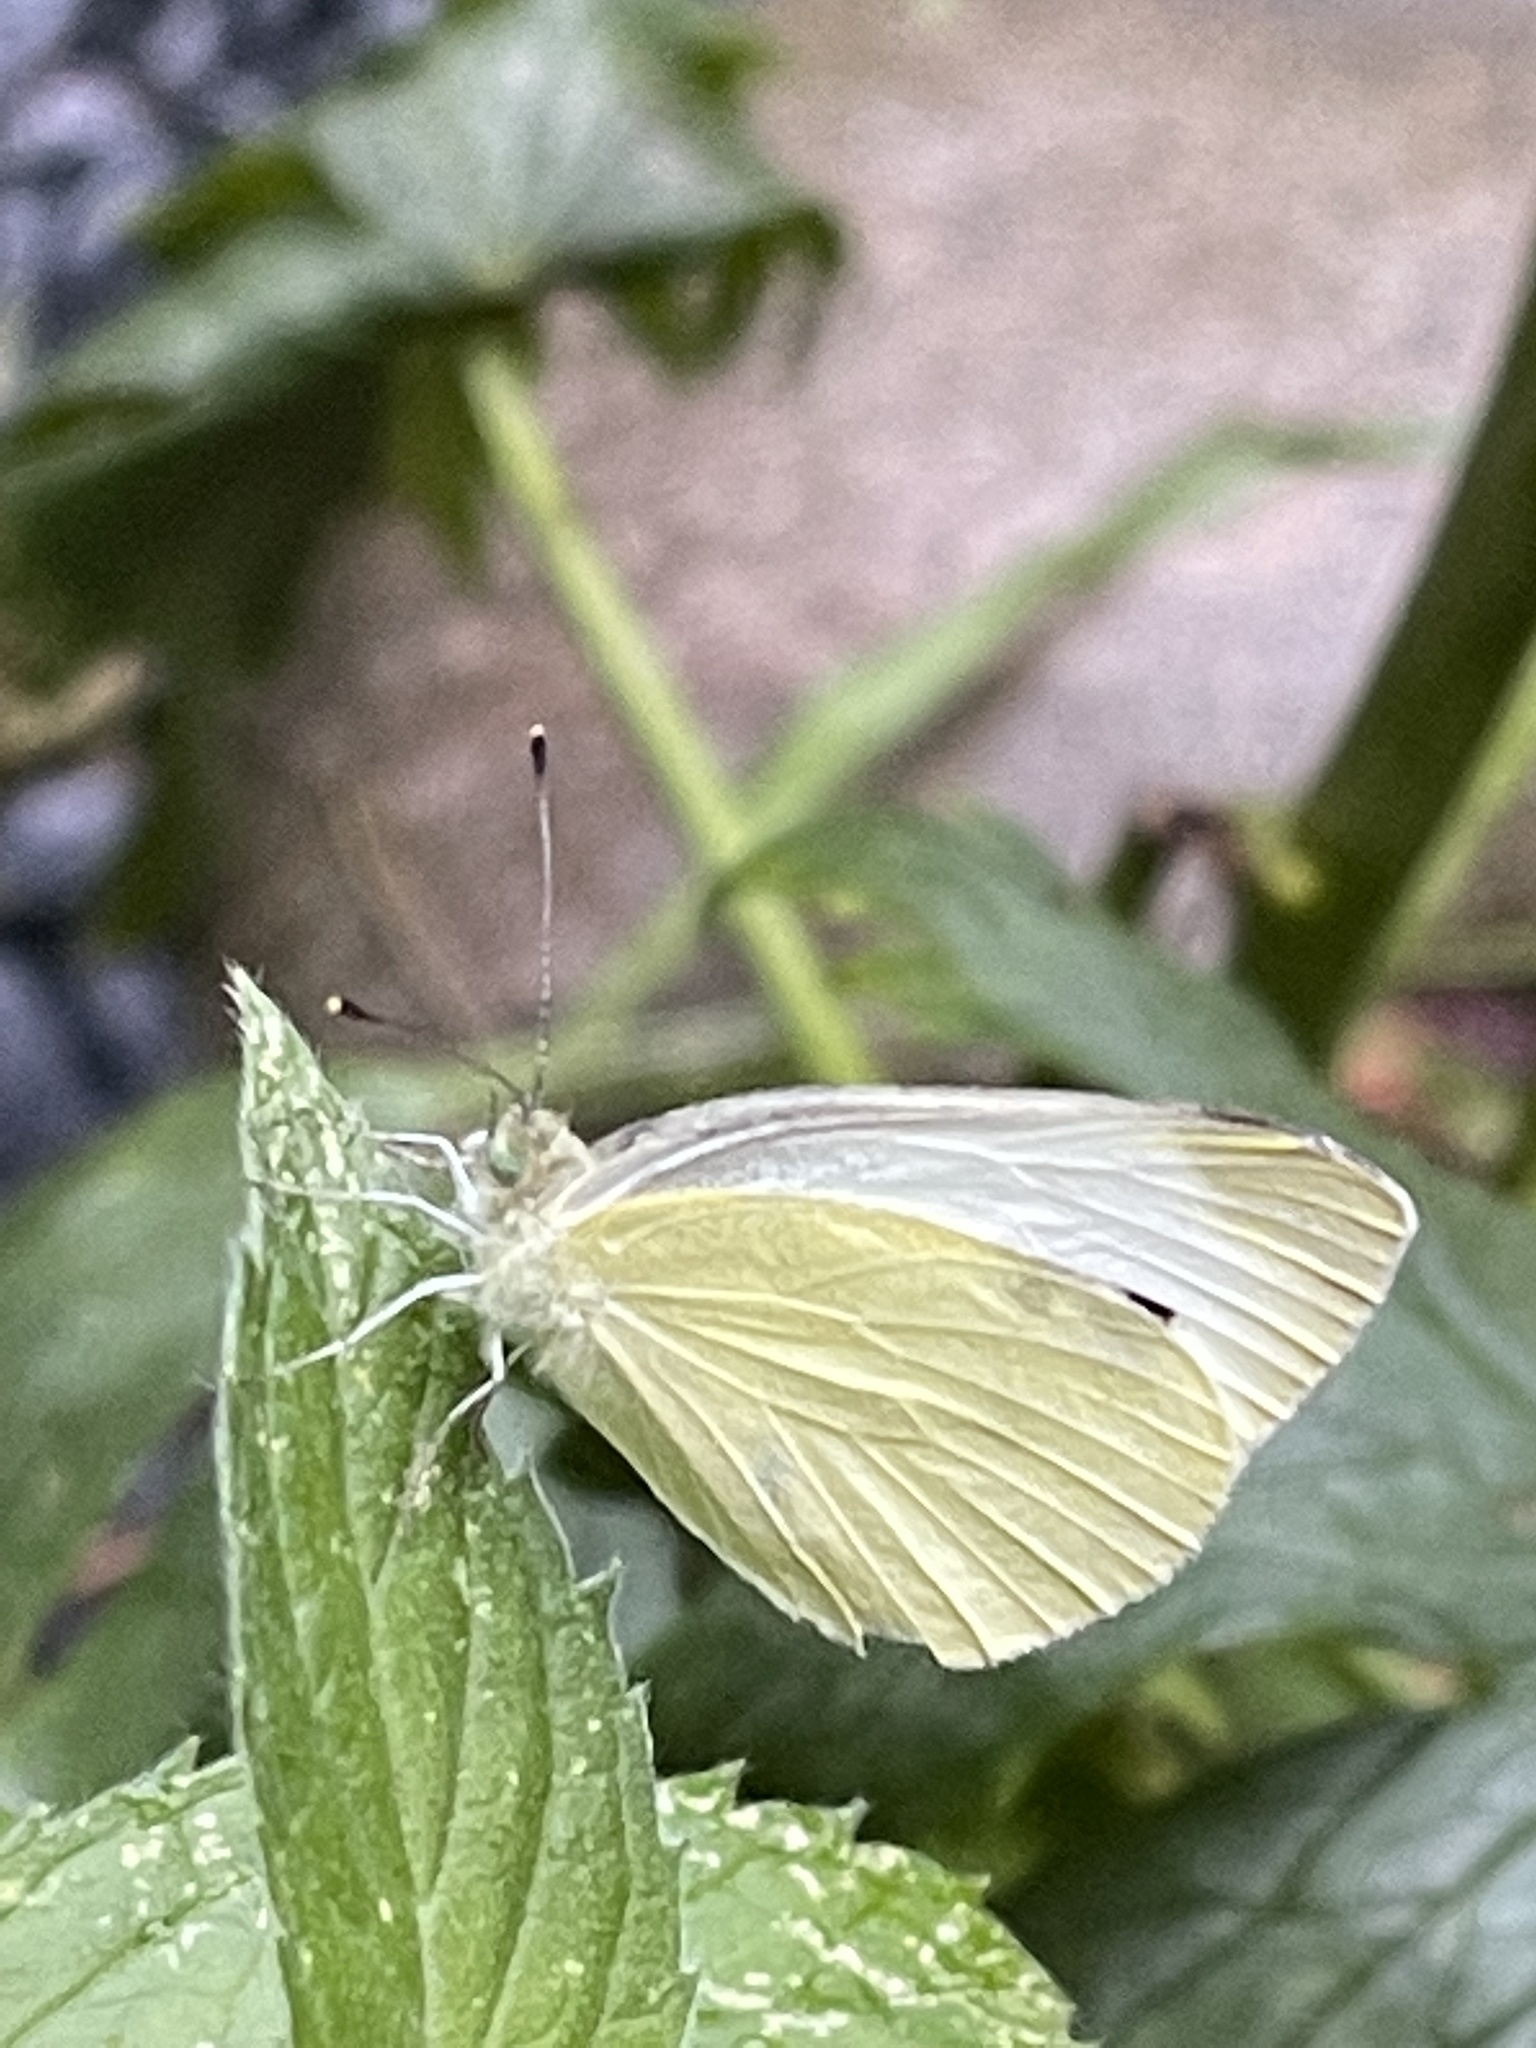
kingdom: Animalia
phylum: Arthropoda
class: Insecta
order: Lepidoptera
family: Pieridae
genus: Pieris
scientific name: Pieris rapae
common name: Small white
